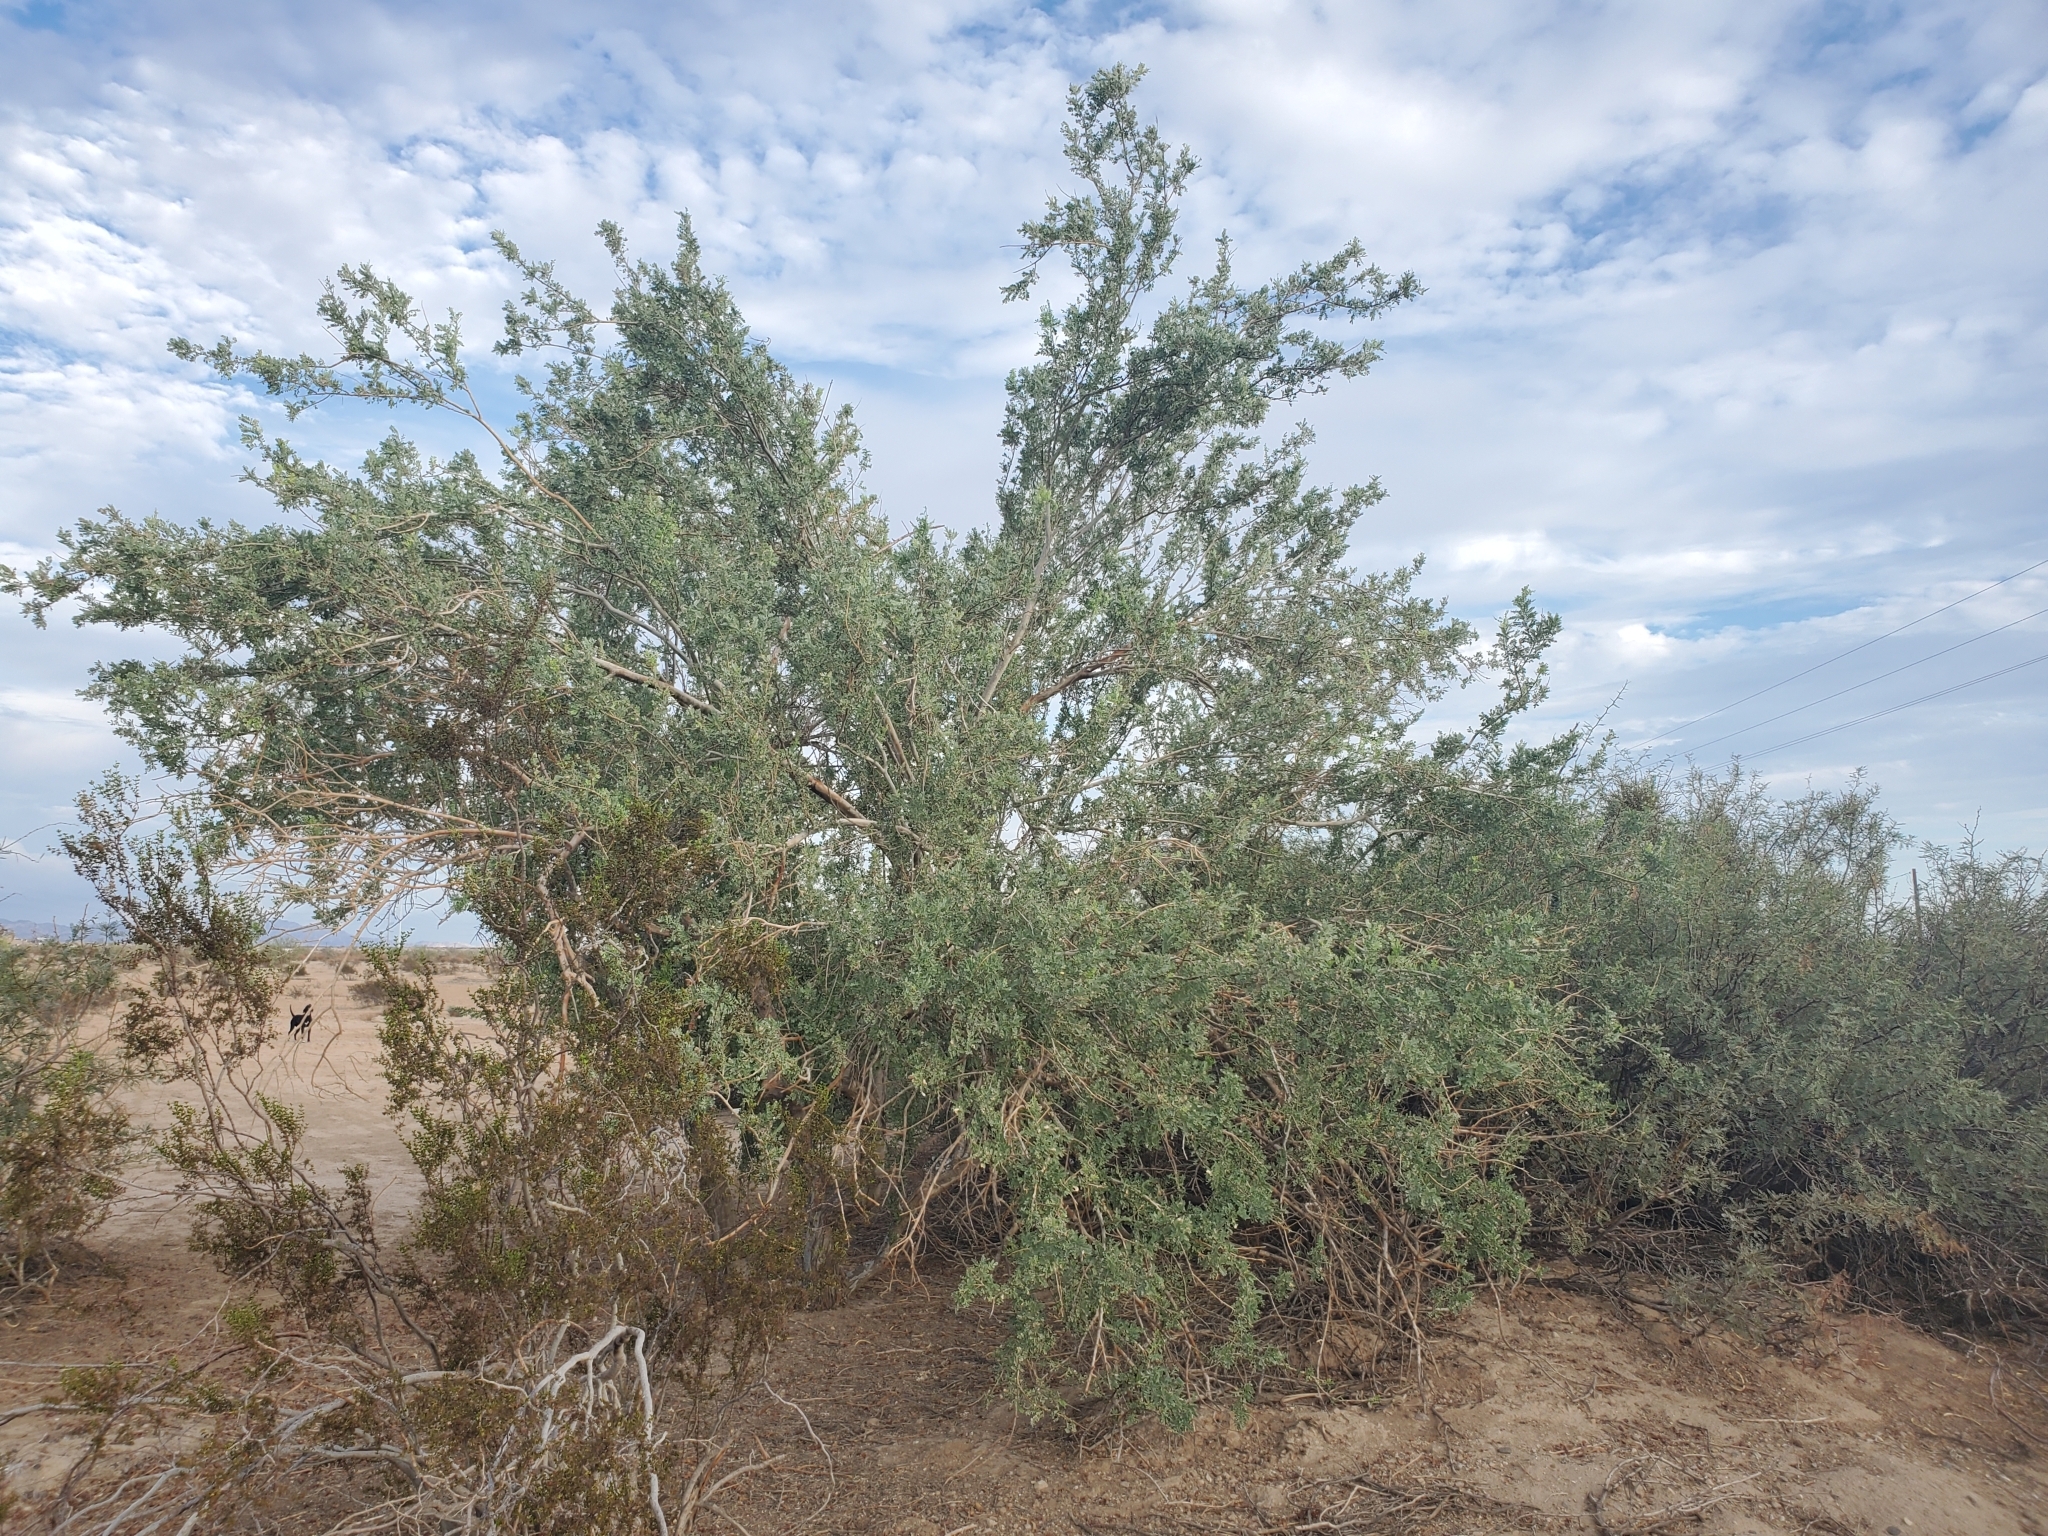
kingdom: Plantae
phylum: Tracheophyta
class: Magnoliopsida
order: Fabales
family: Fabaceae
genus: Olneya
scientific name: Olneya tesota
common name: Desert ironwood
